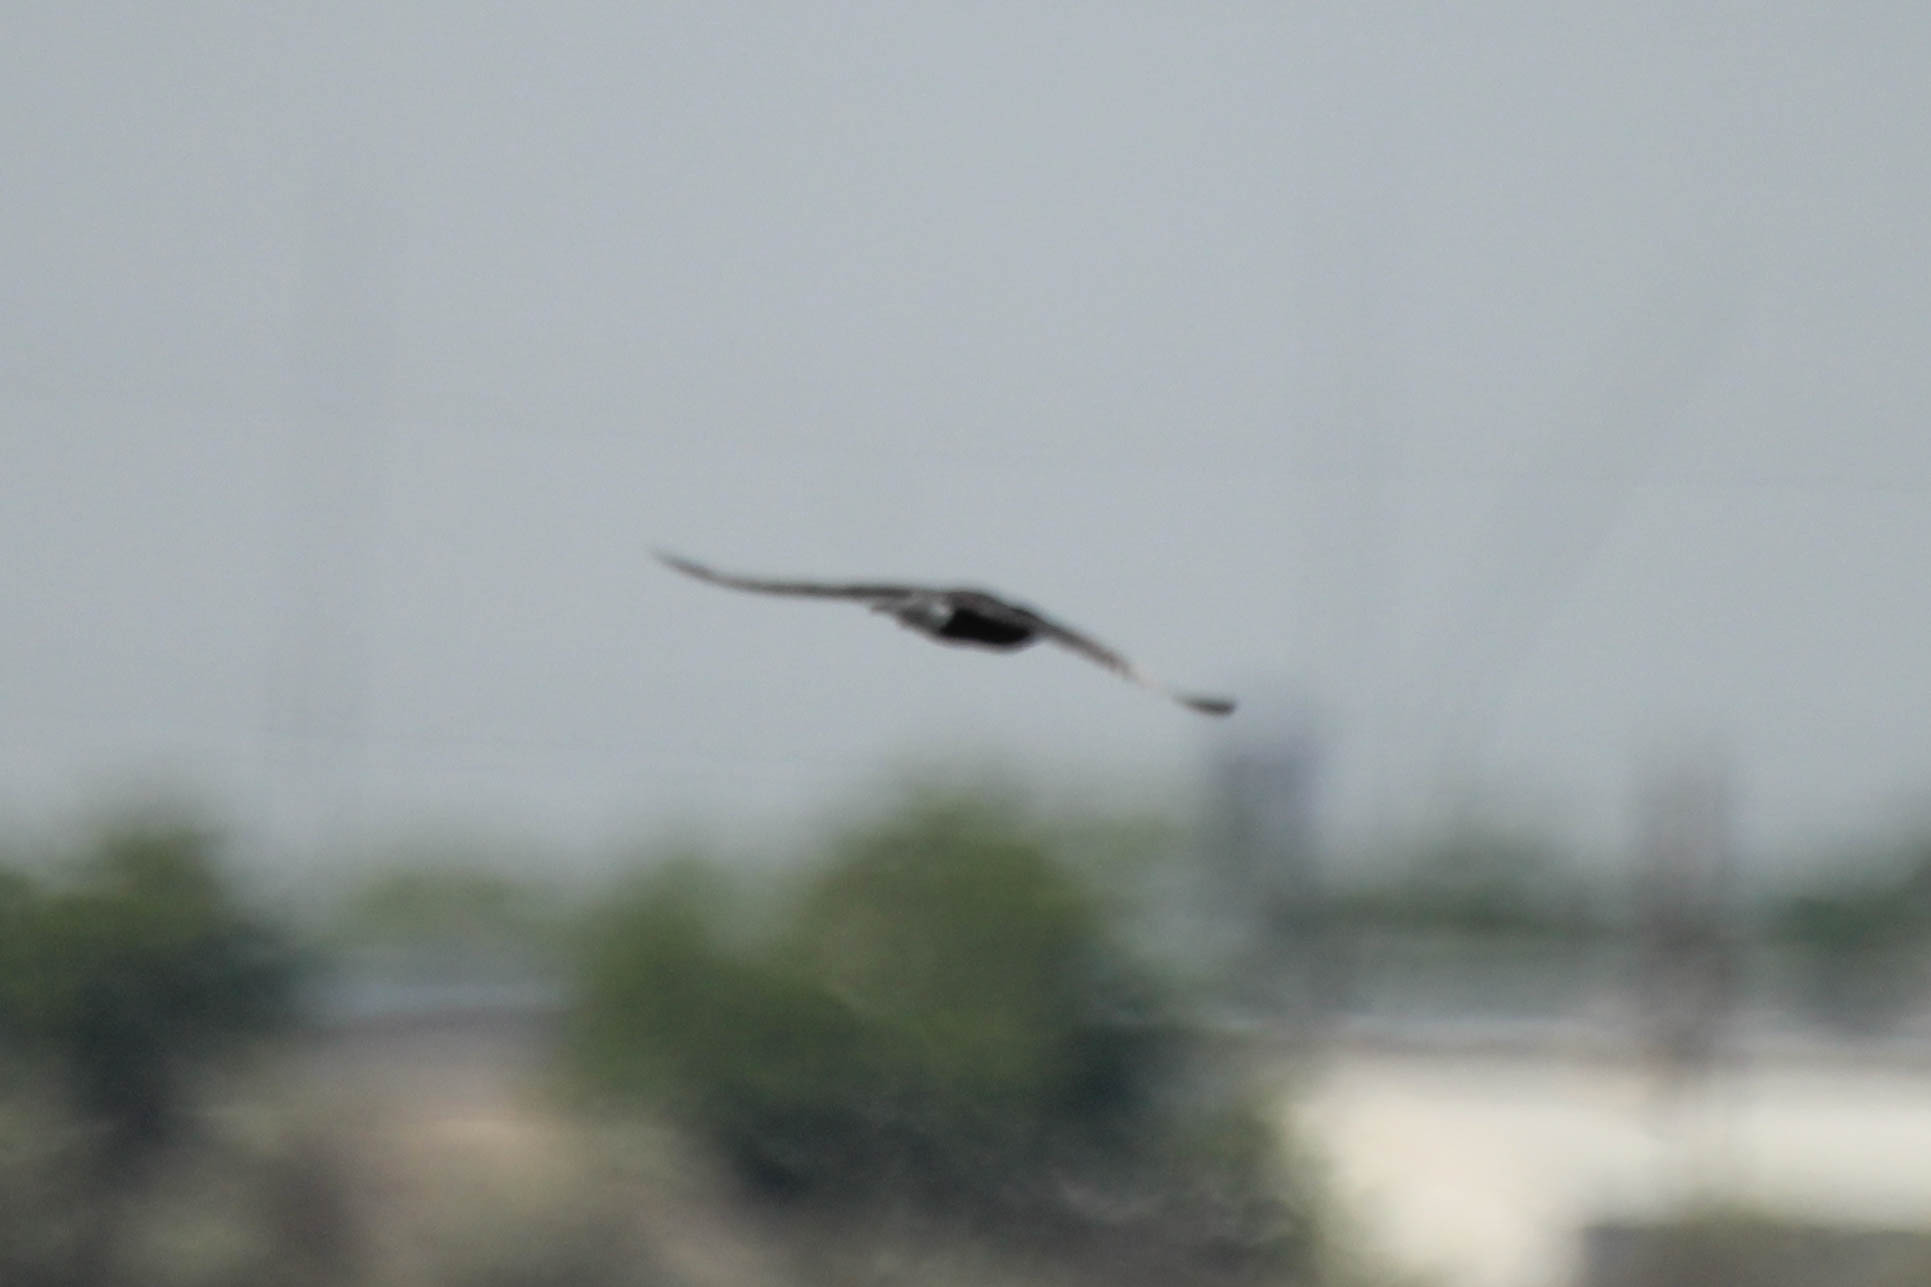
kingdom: Animalia
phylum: Chordata
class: Aves
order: Charadriiformes
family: Laridae
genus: Chlidonias
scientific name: Chlidonias niger
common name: Black tern
